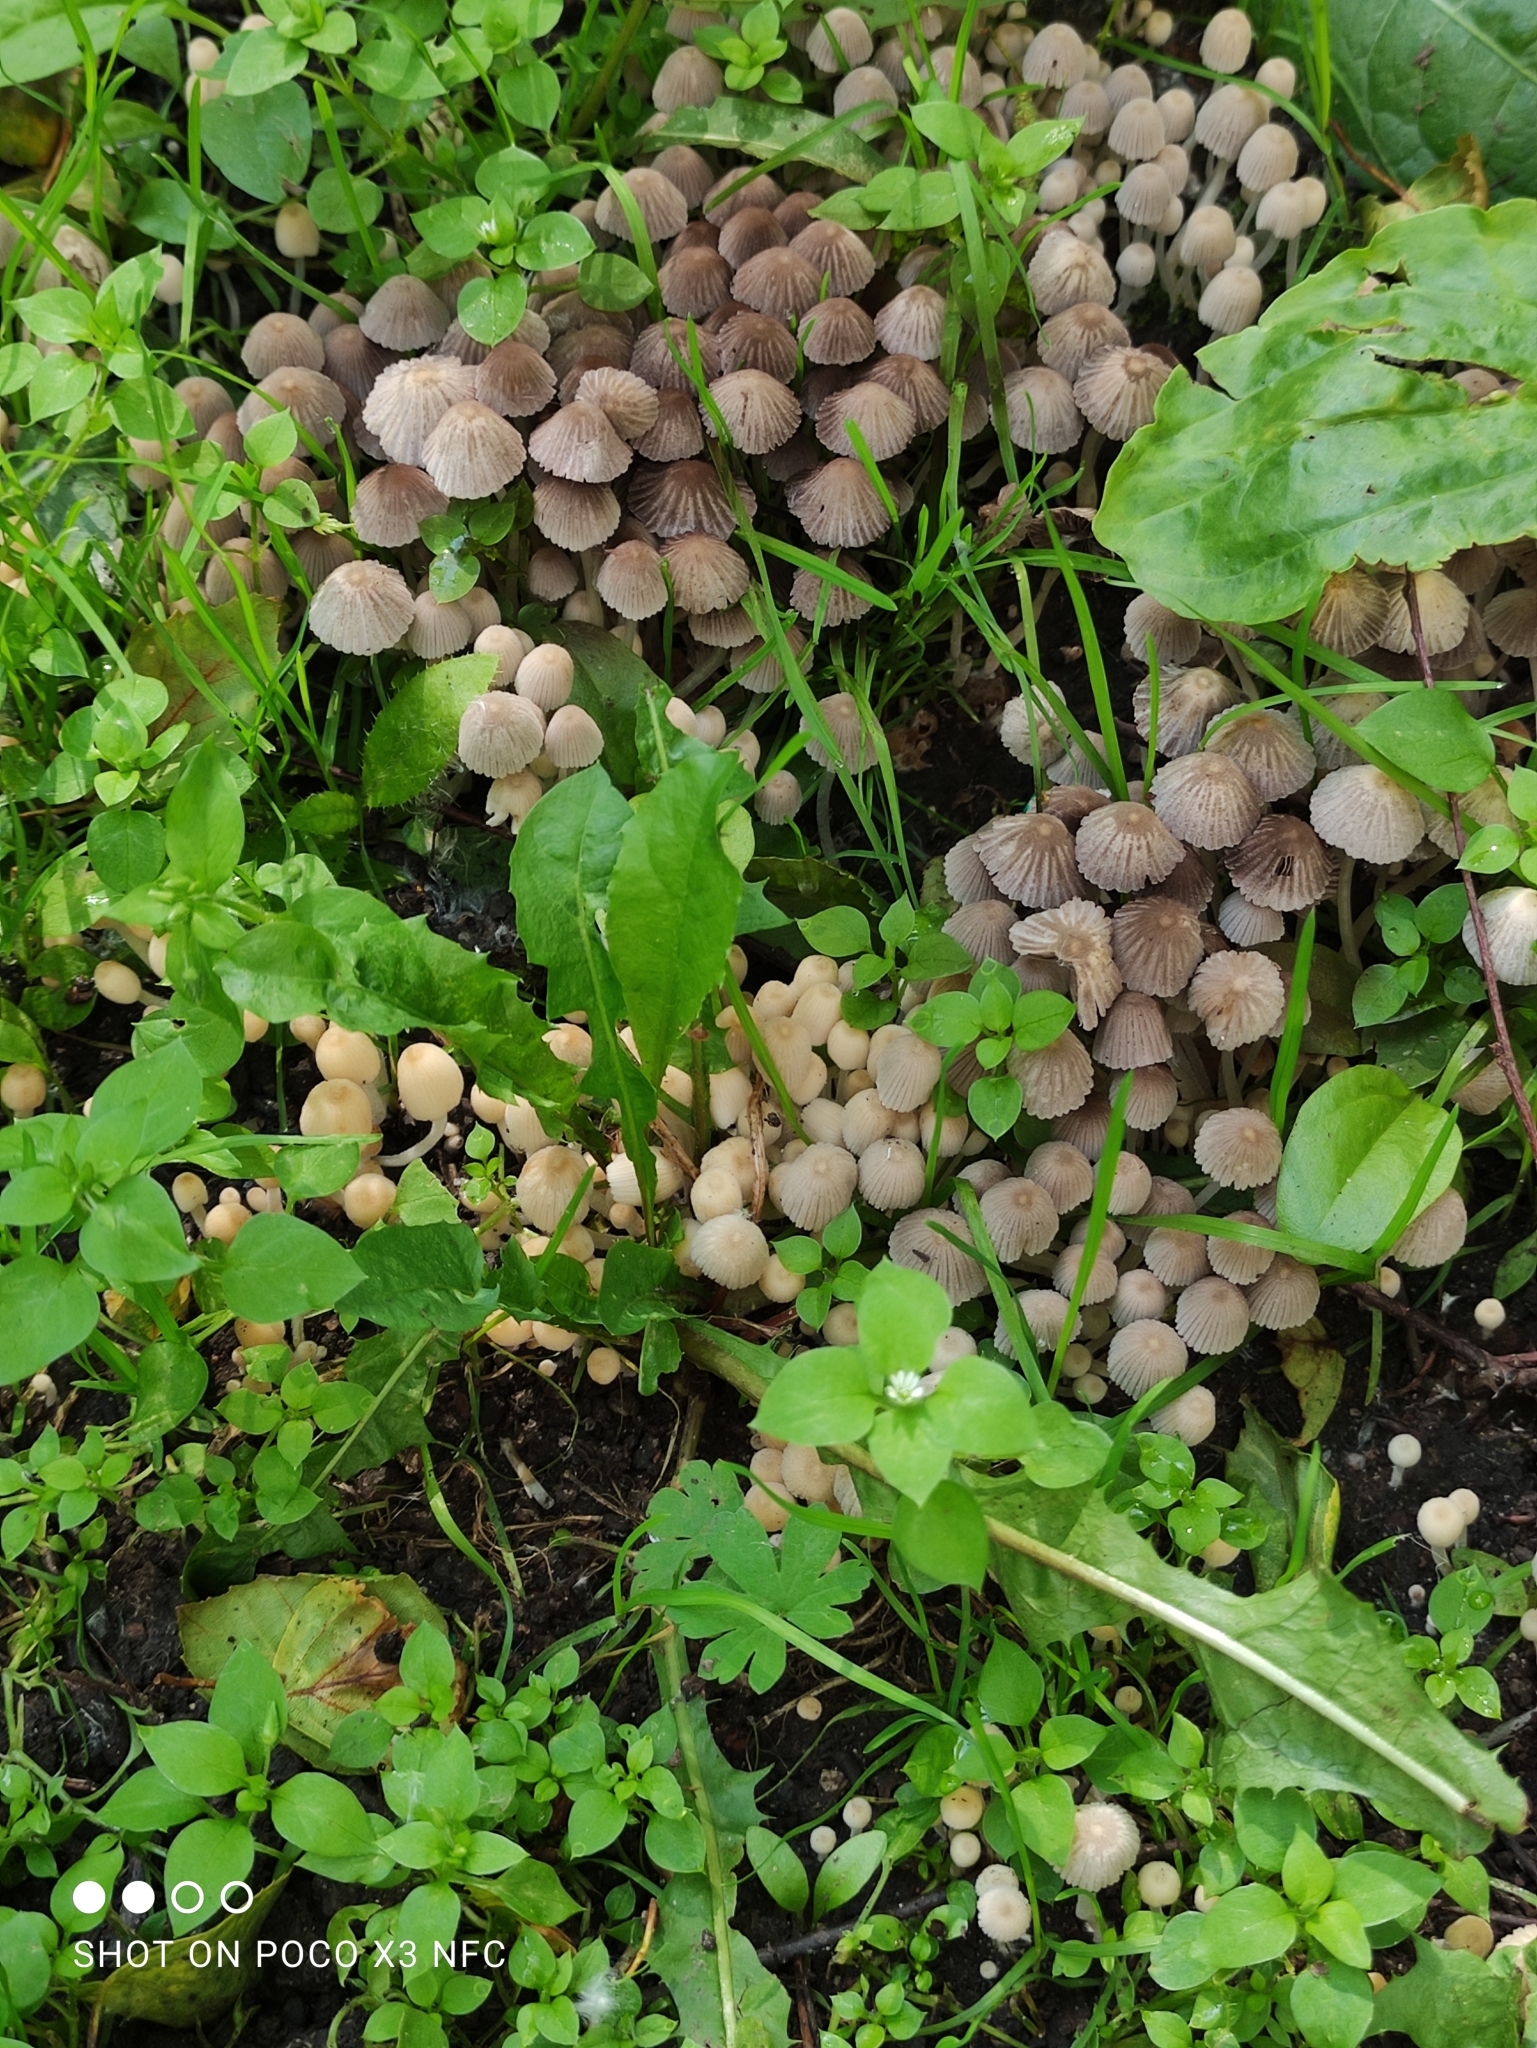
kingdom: Fungi
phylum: Basidiomycota
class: Agaricomycetes
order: Agaricales
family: Psathyrellaceae
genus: Coprinellus
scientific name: Coprinellus disseminatus
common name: Fairies' bonnets
